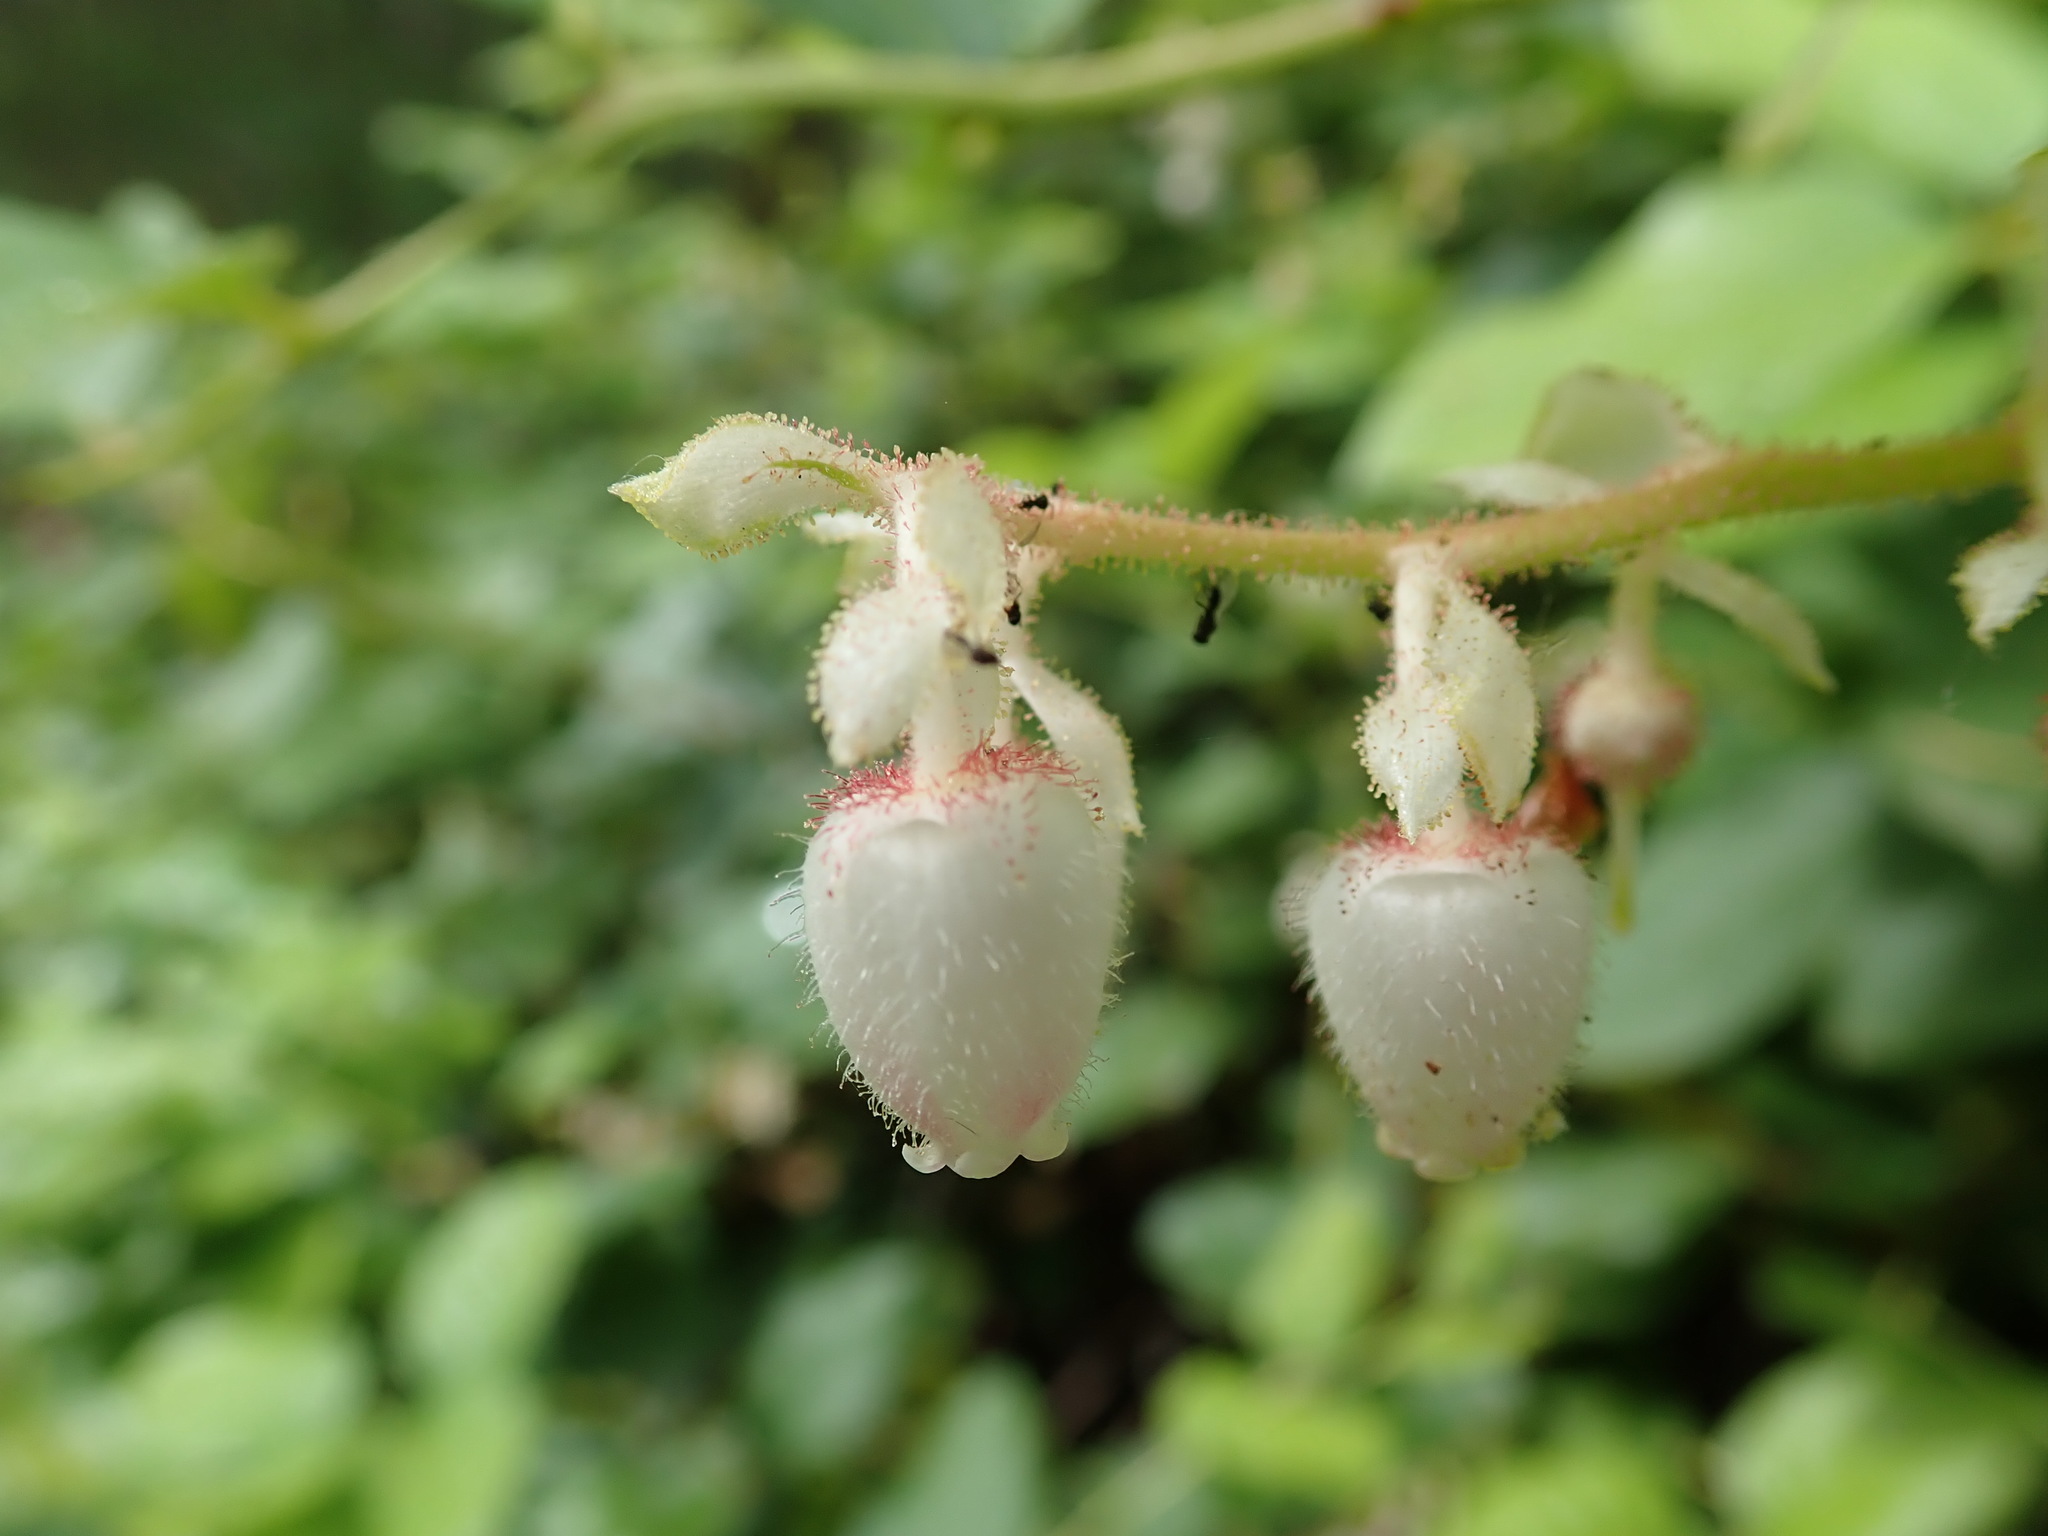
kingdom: Plantae
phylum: Tracheophyta
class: Magnoliopsida
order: Ericales
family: Ericaceae
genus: Gaultheria
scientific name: Gaultheria shallon
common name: Shallon
